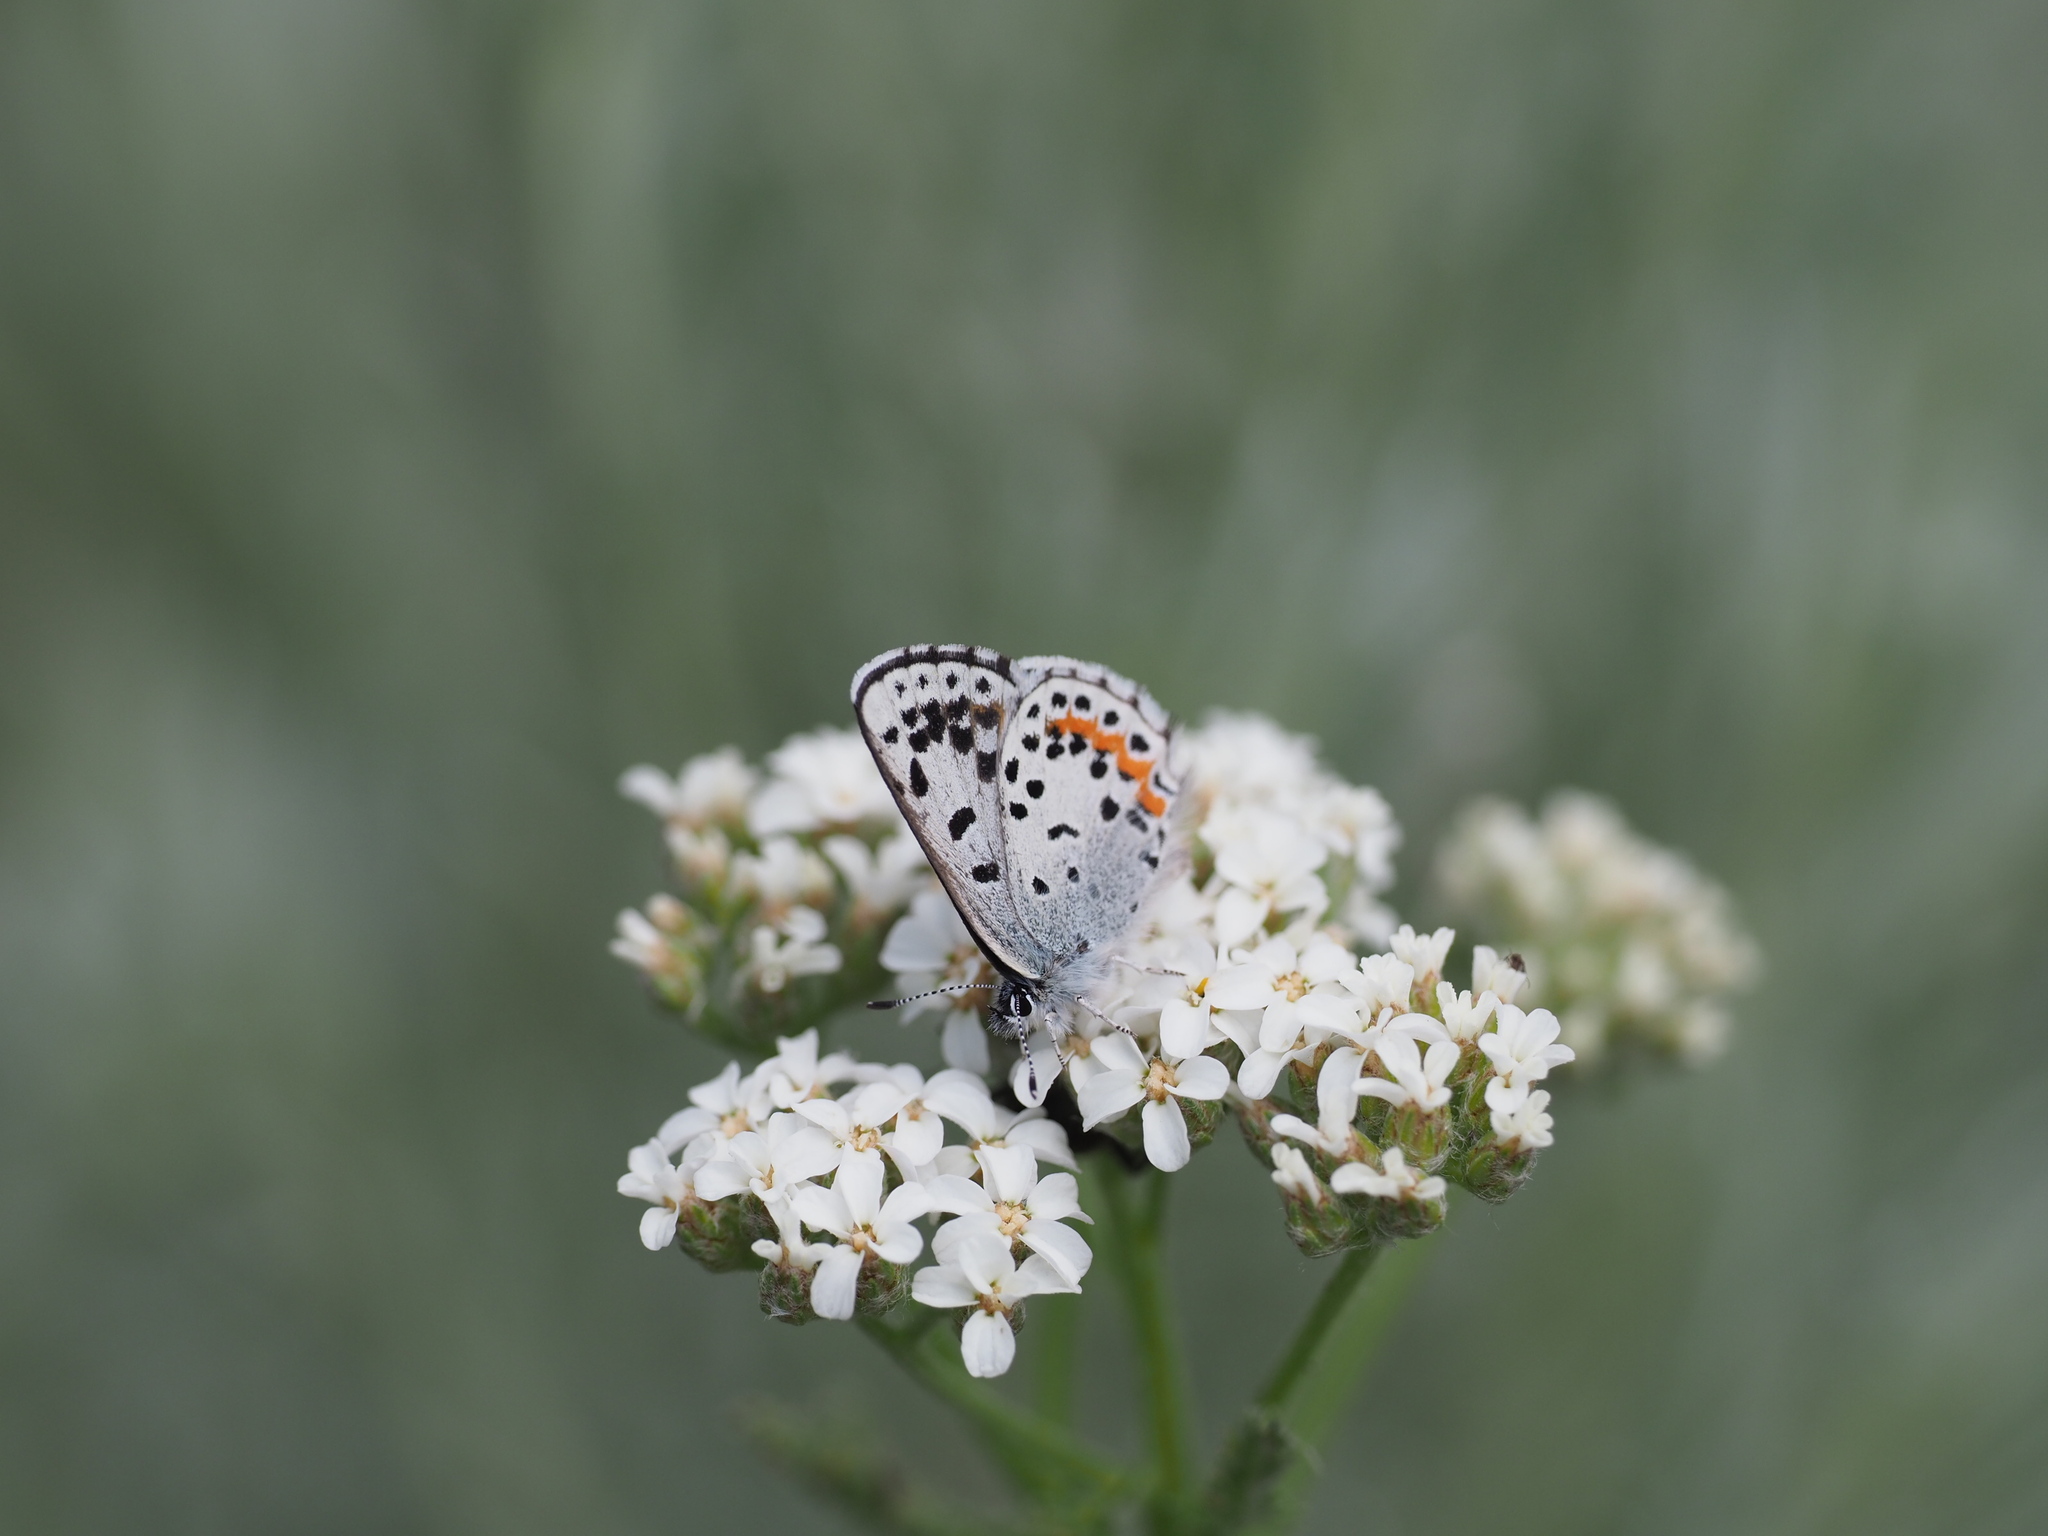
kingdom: Animalia
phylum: Arthropoda
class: Insecta
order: Lepidoptera
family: Lycaenidae
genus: Euphilotes
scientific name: Euphilotes
